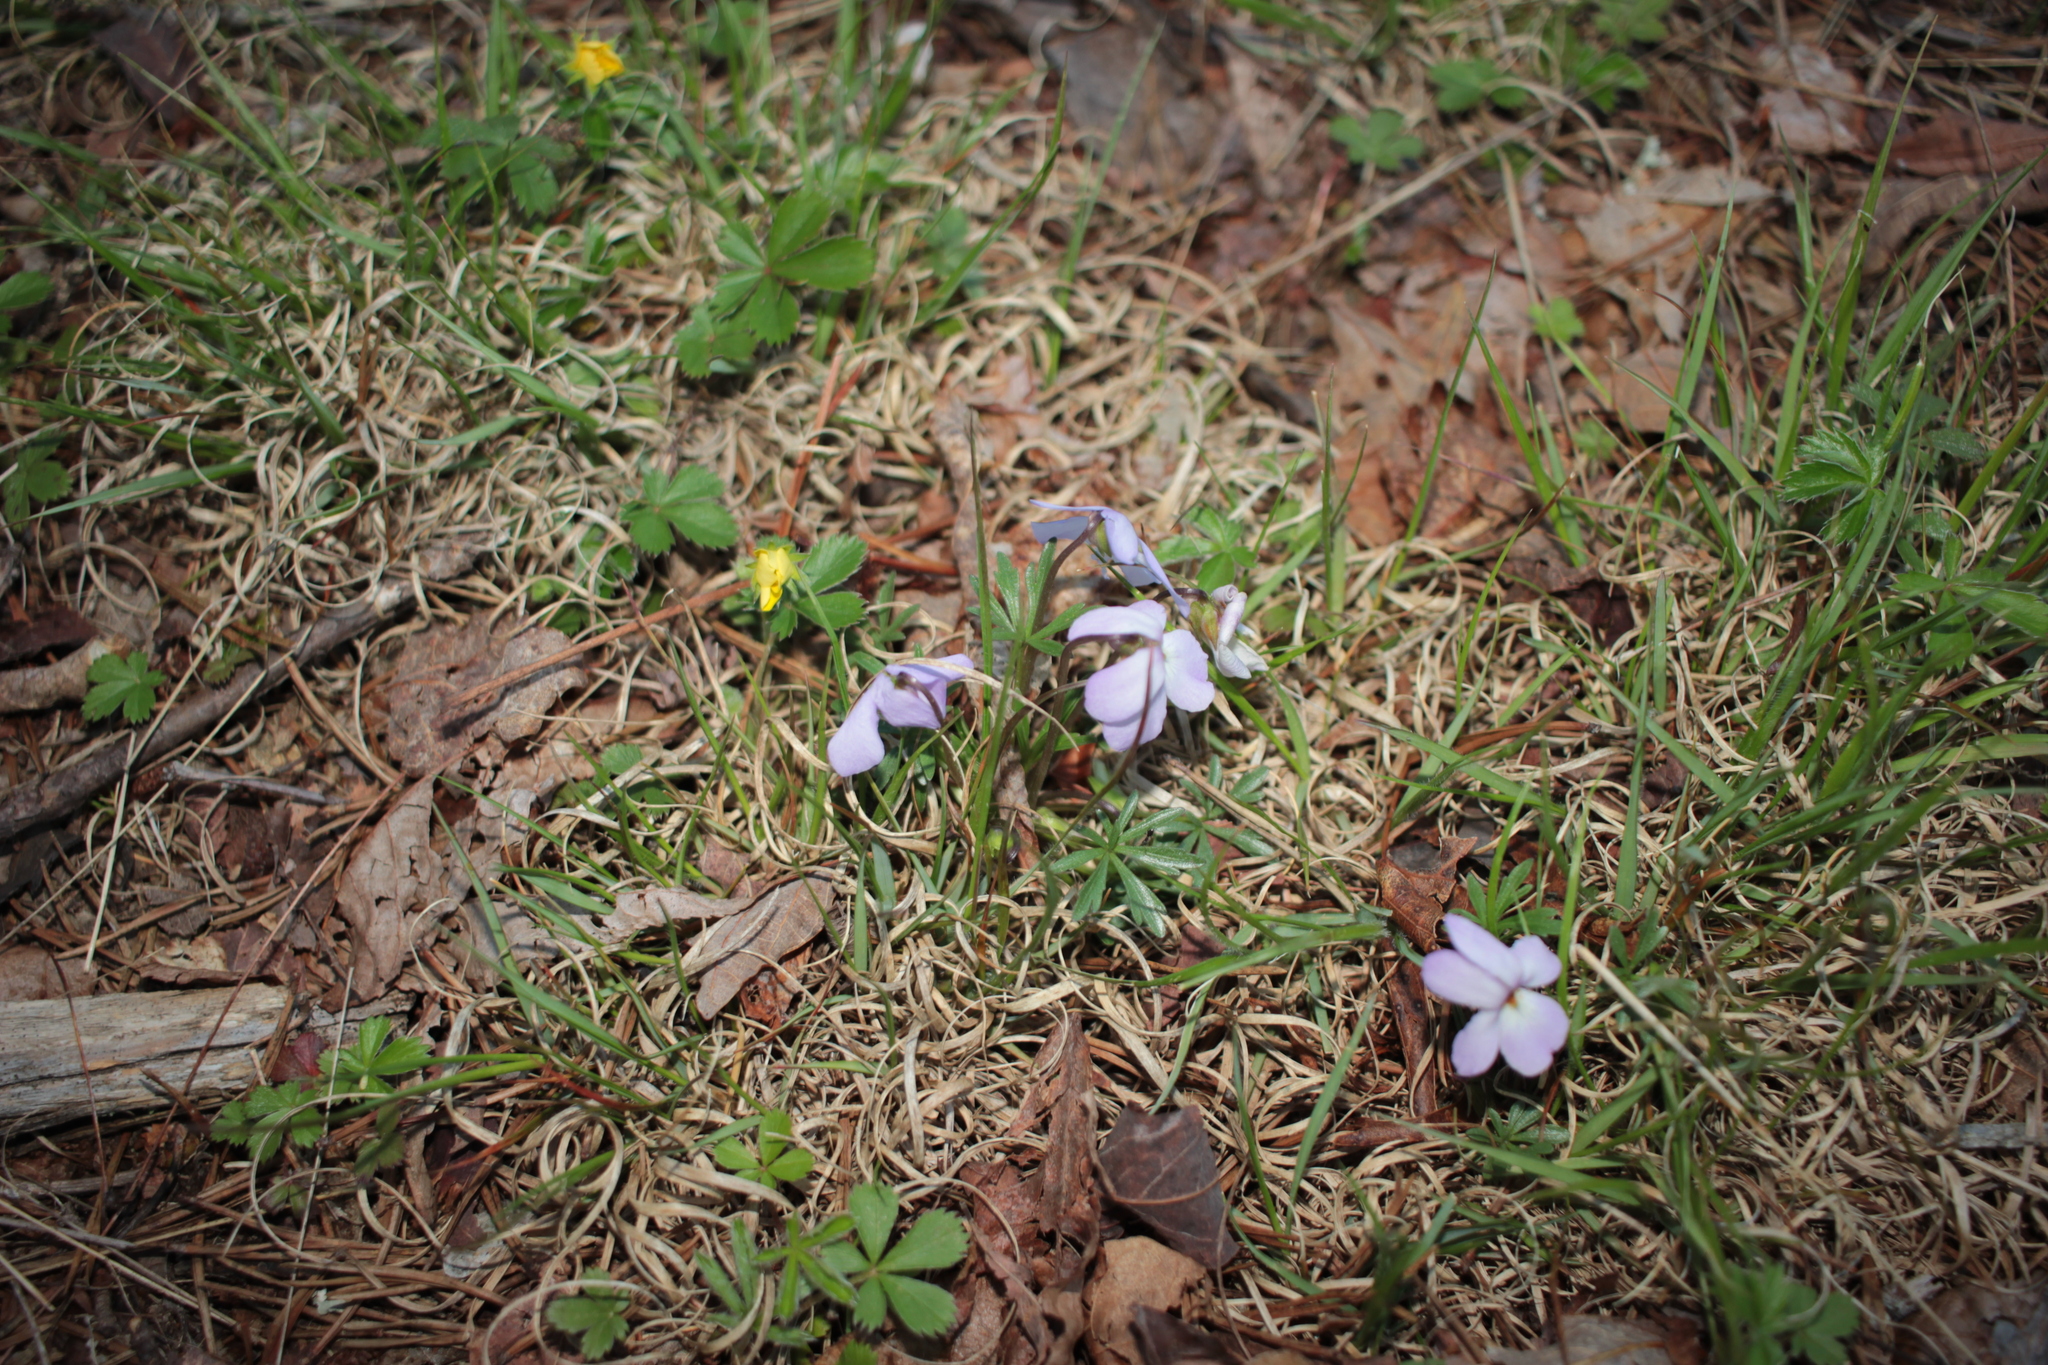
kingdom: Plantae
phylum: Tracheophyta
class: Magnoliopsida
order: Malpighiales
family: Violaceae
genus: Viola
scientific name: Viola pedata
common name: Pansy violet
